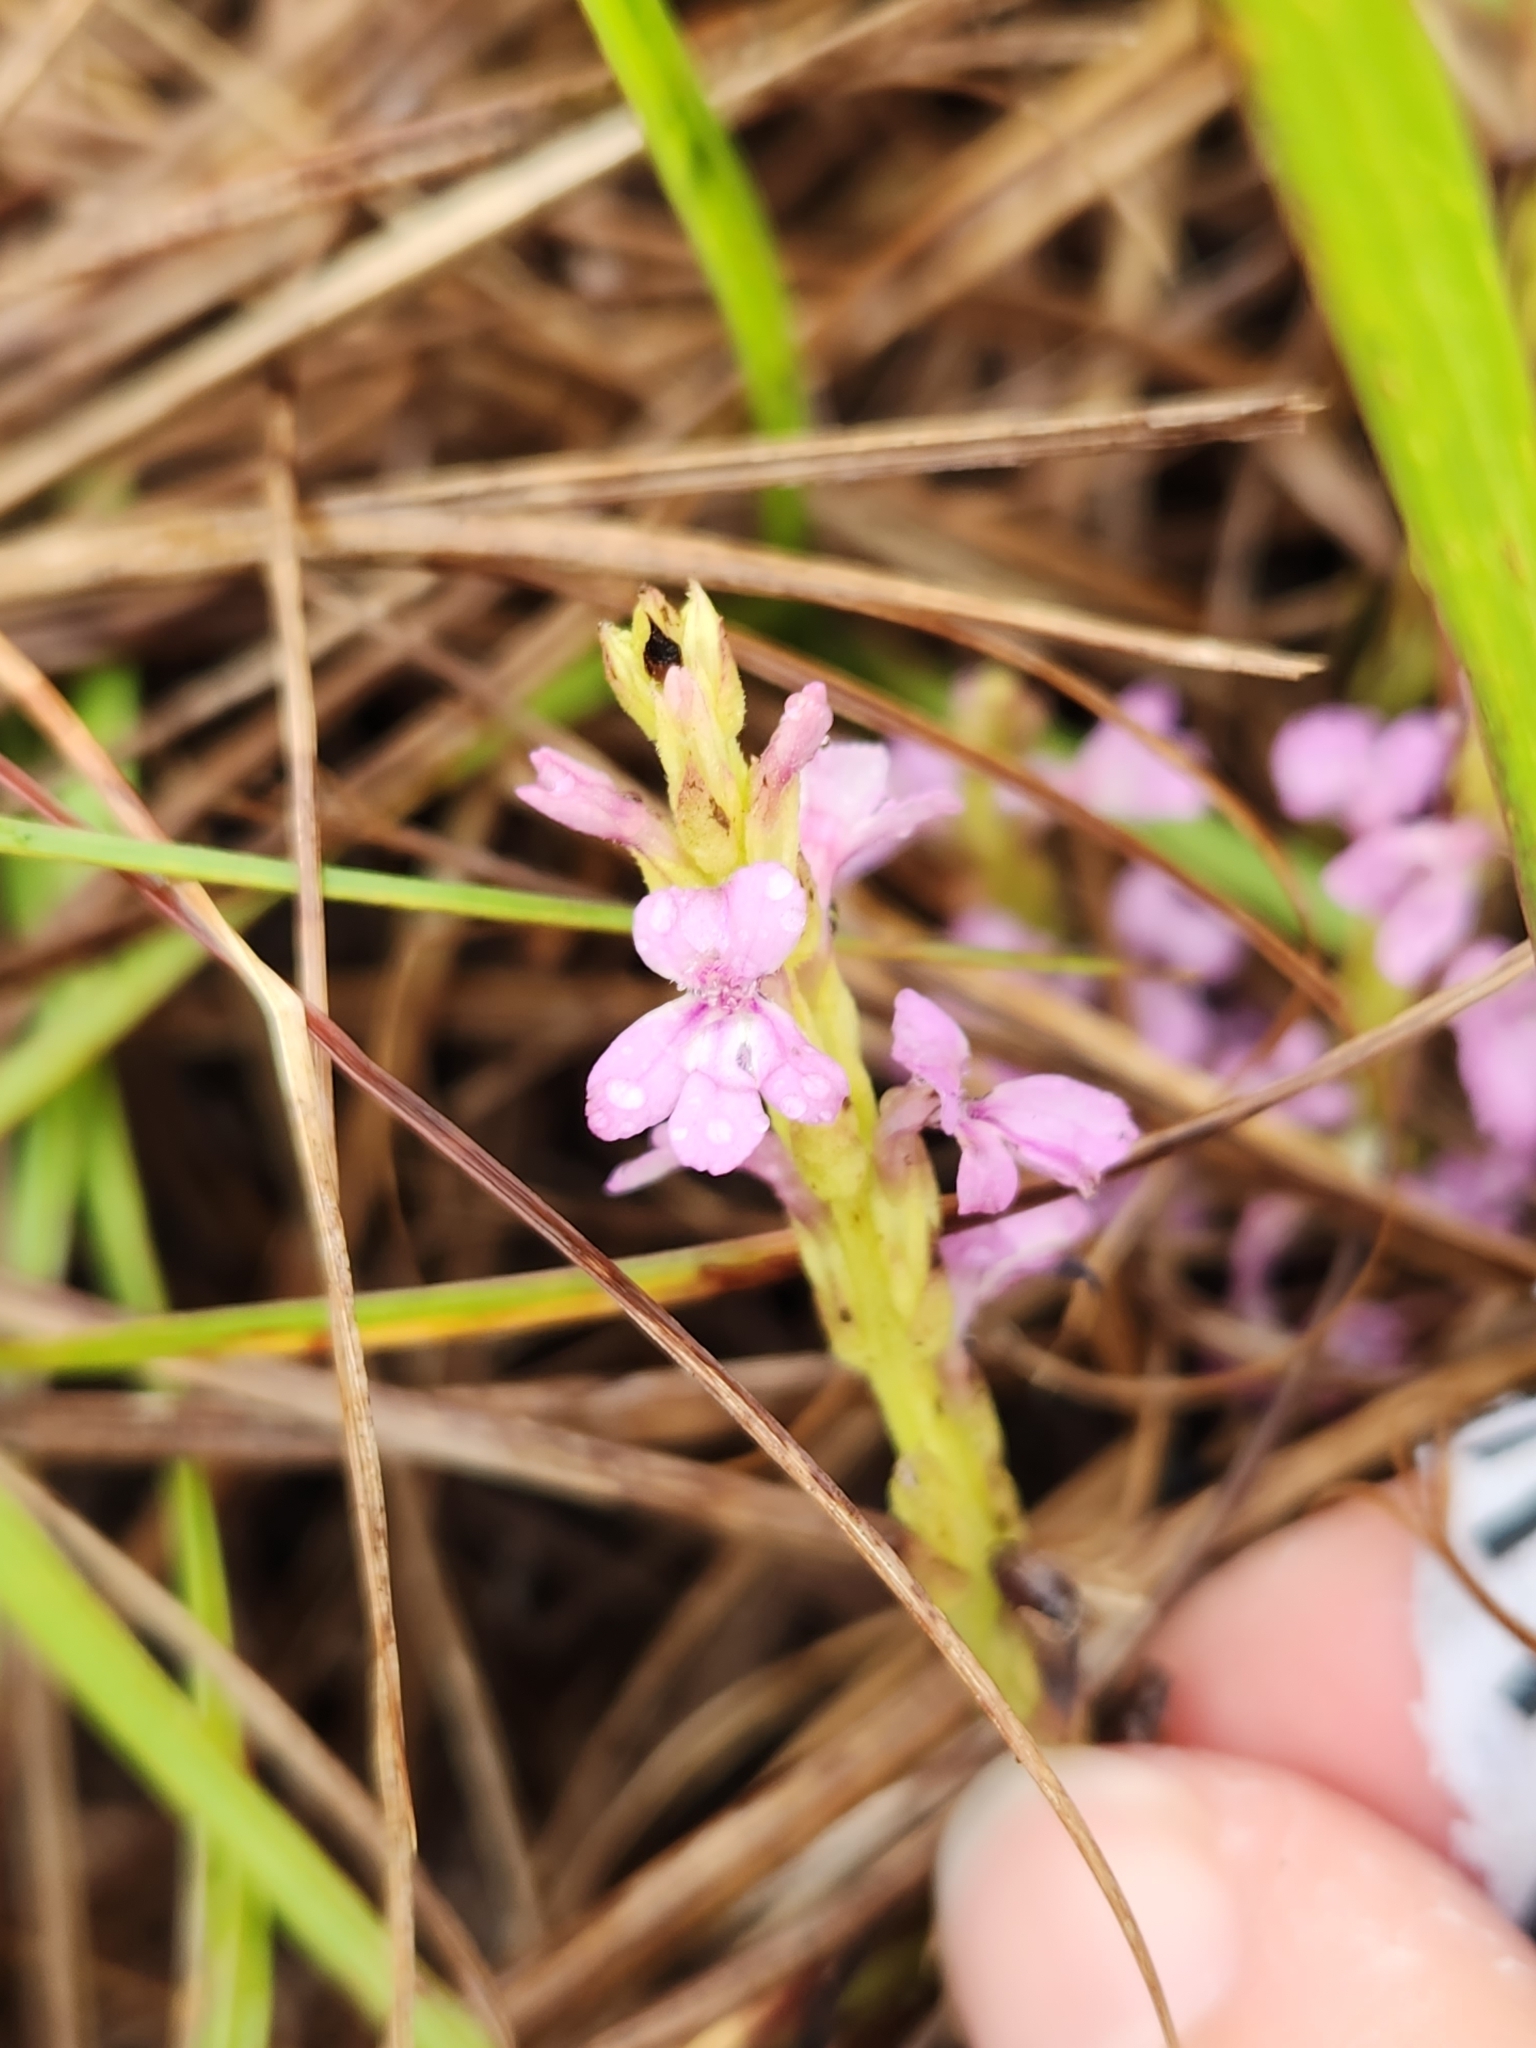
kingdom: Plantae
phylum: Tracheophyta
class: Magnoliopsida
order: Lamiales
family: Orobanchaceae
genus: Striga
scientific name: Striga gesnerioides
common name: Cowpea witchweed
